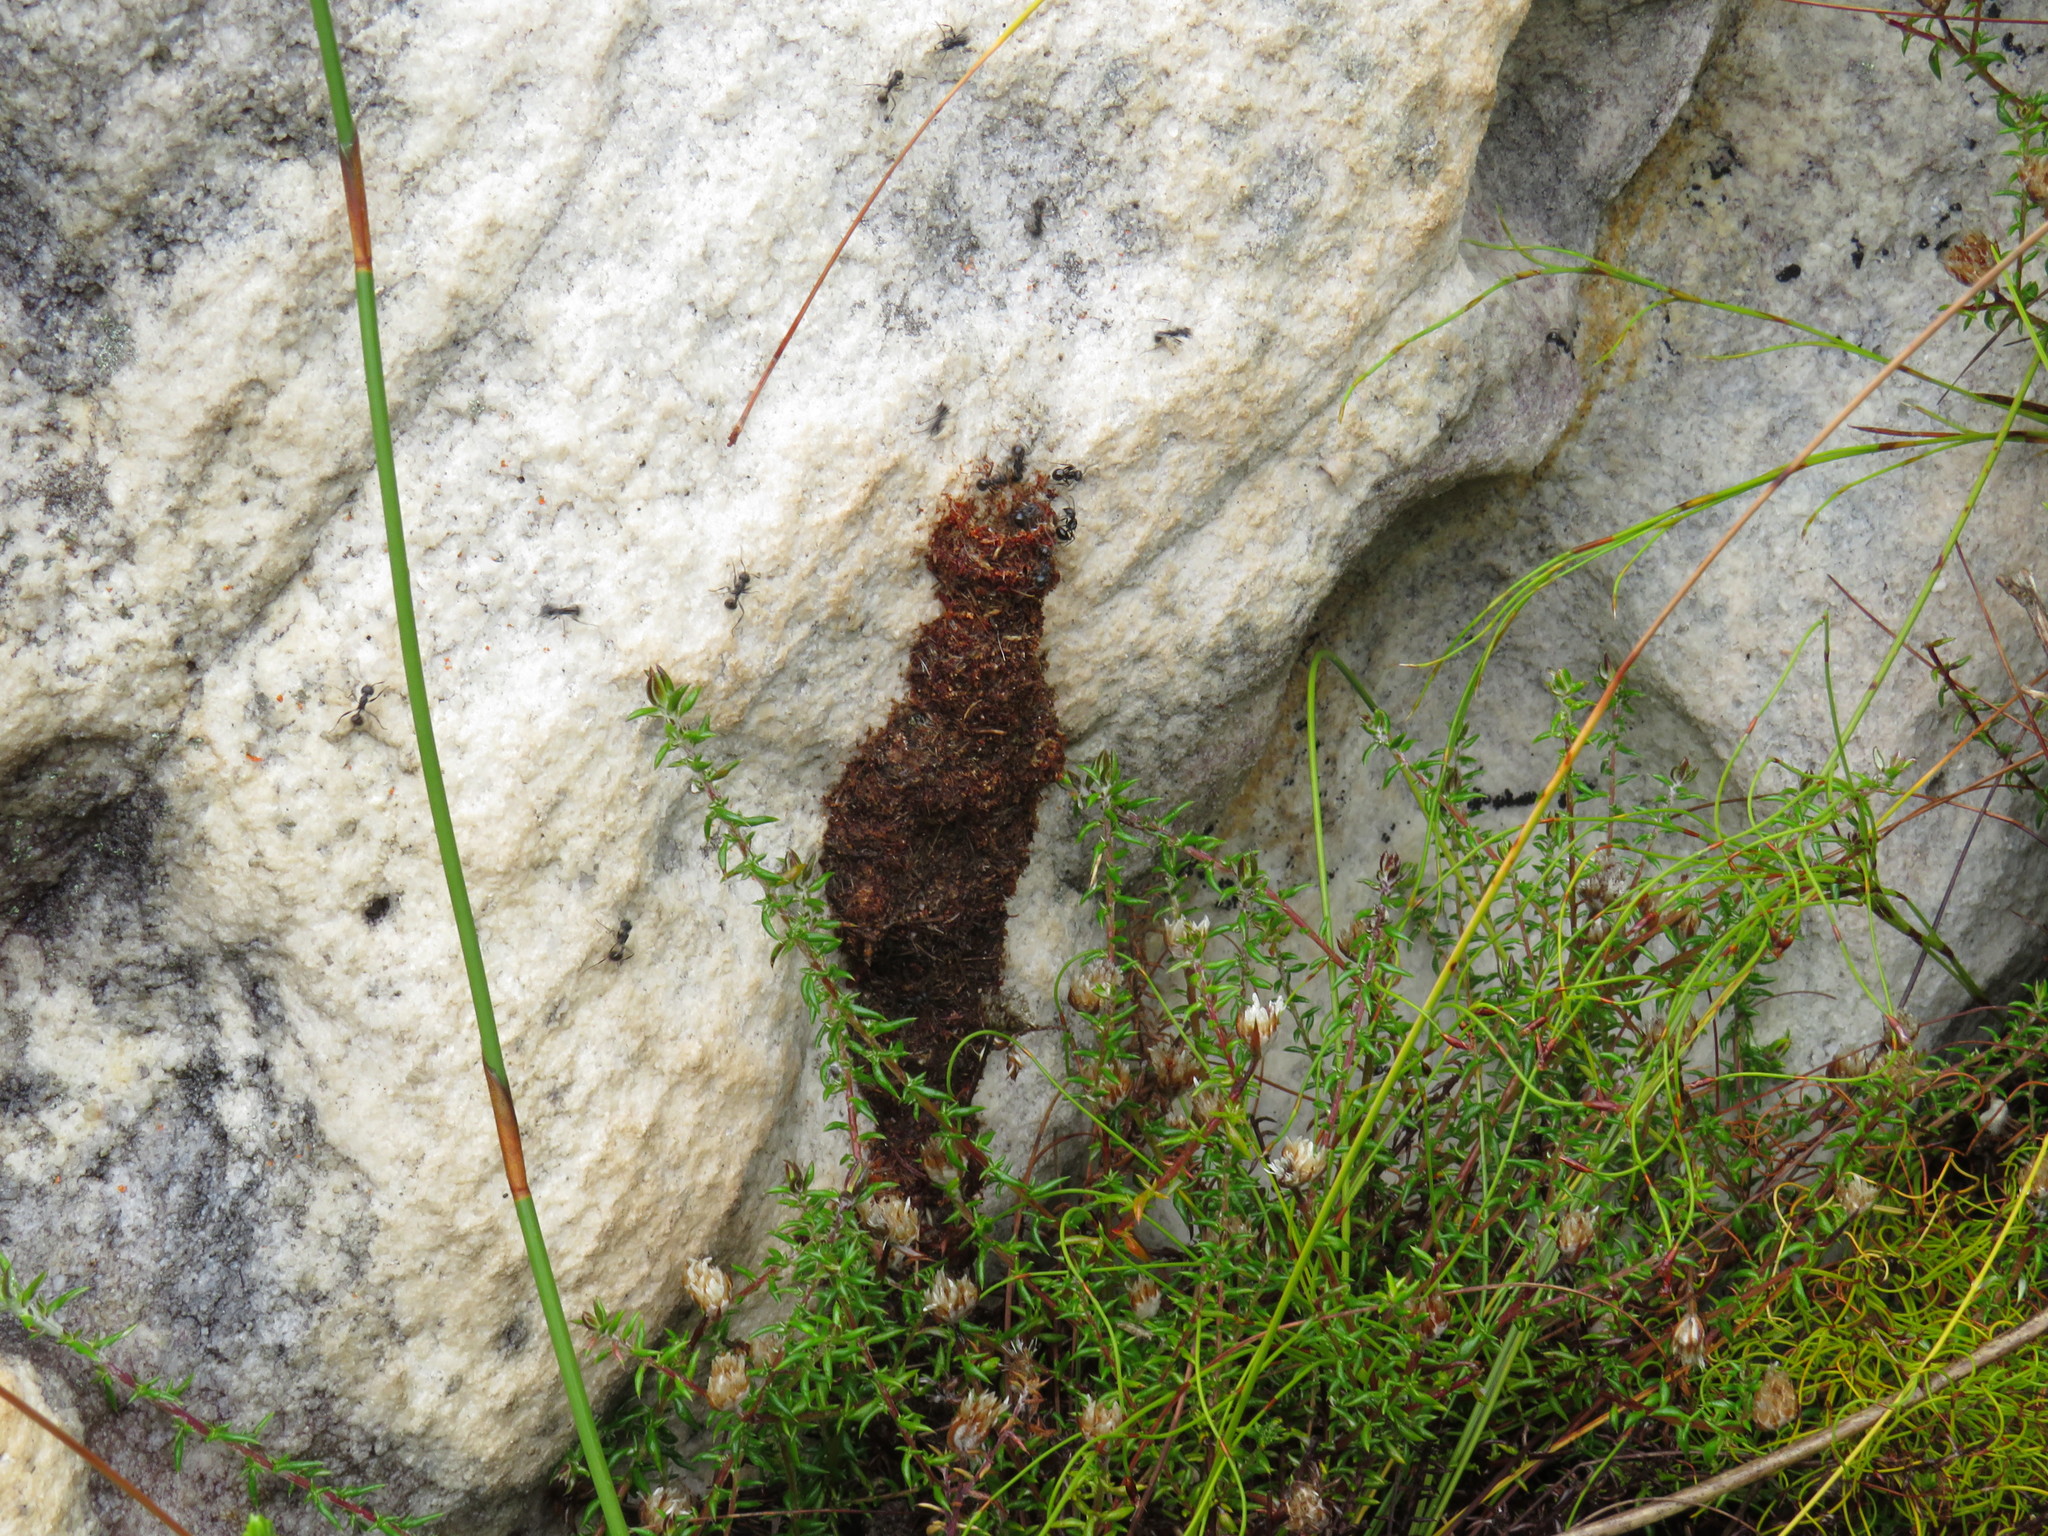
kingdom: Animalia
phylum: Arthropoda
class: Insecta
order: Hymenoptera
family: Formicidae
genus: Myrmicaria
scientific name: Myrmicaria nigra
